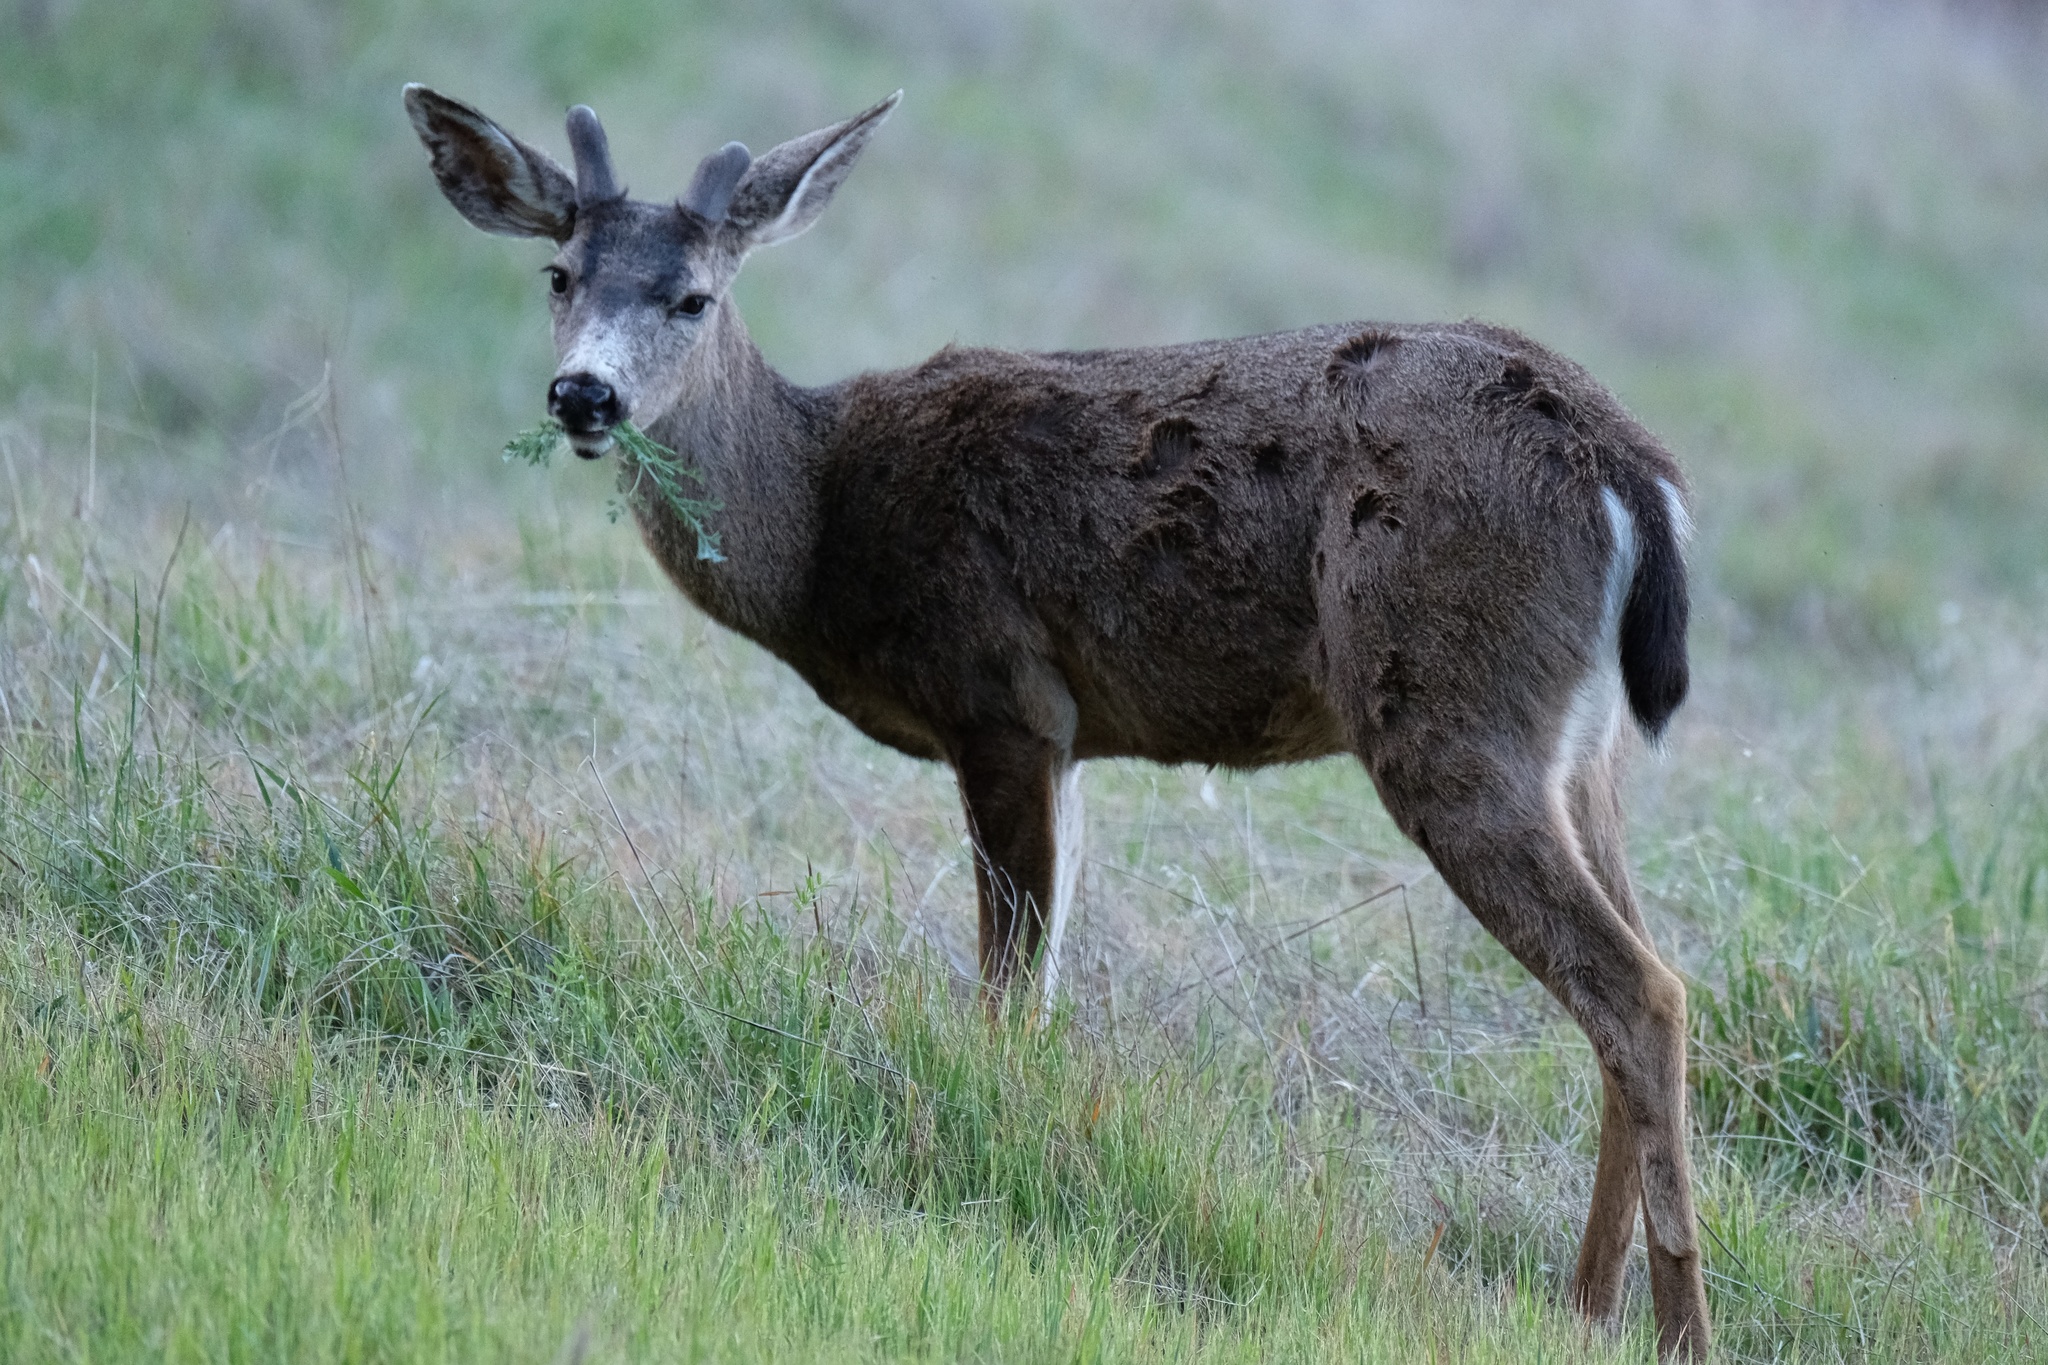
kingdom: Animalia
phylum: Chordata
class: Mammalia
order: Artiodactyla
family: Cervidae
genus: Odocoileus
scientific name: Odocoileus hemionus
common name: Mule deer
